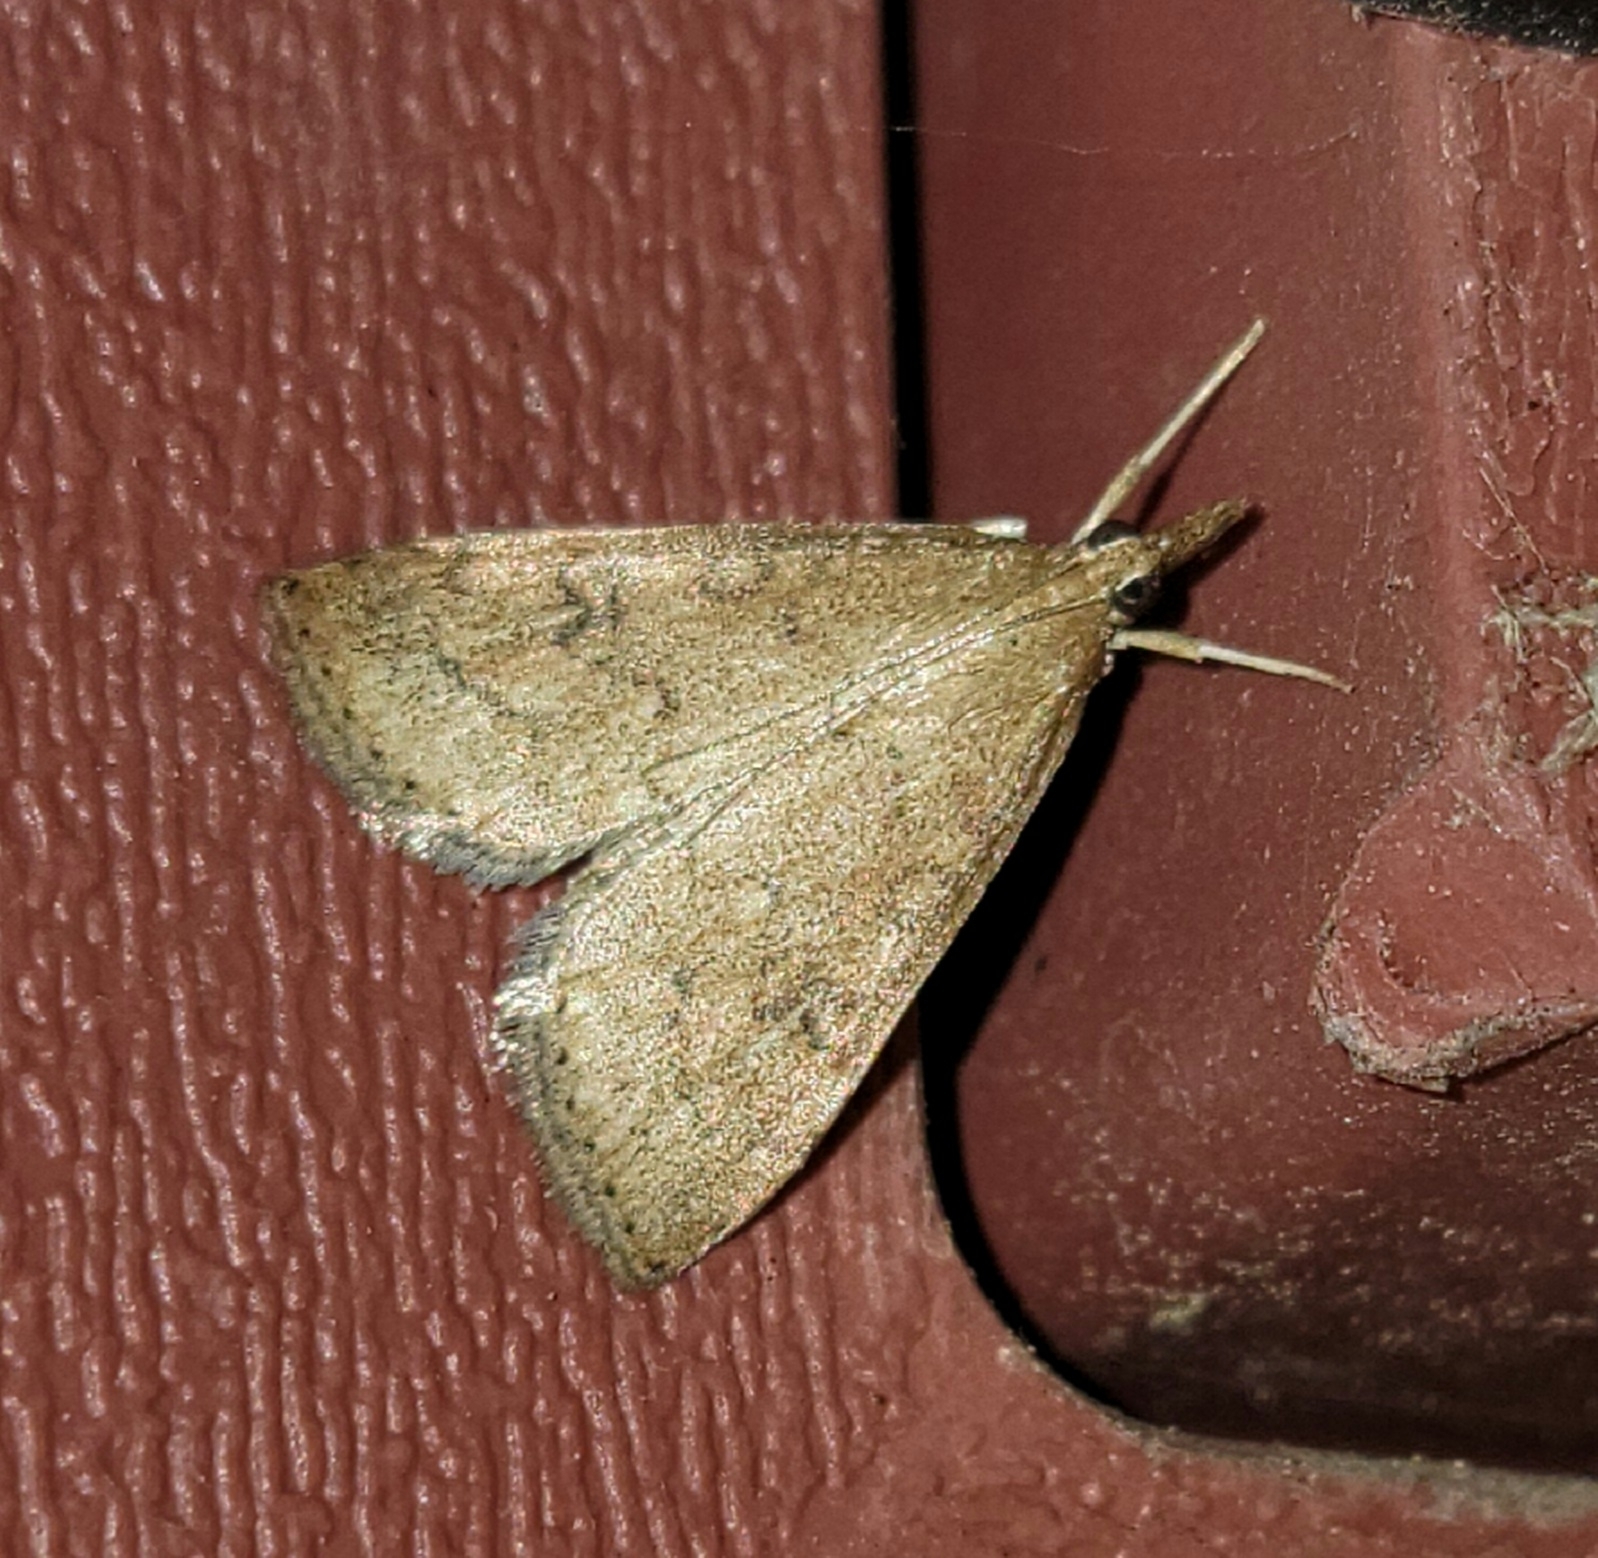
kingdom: Animalia
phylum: Arthropoda
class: Insecta
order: Lepidoptera
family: Crambidae
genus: Udea
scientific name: Udea rubigalis
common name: Celery leaftier moth
